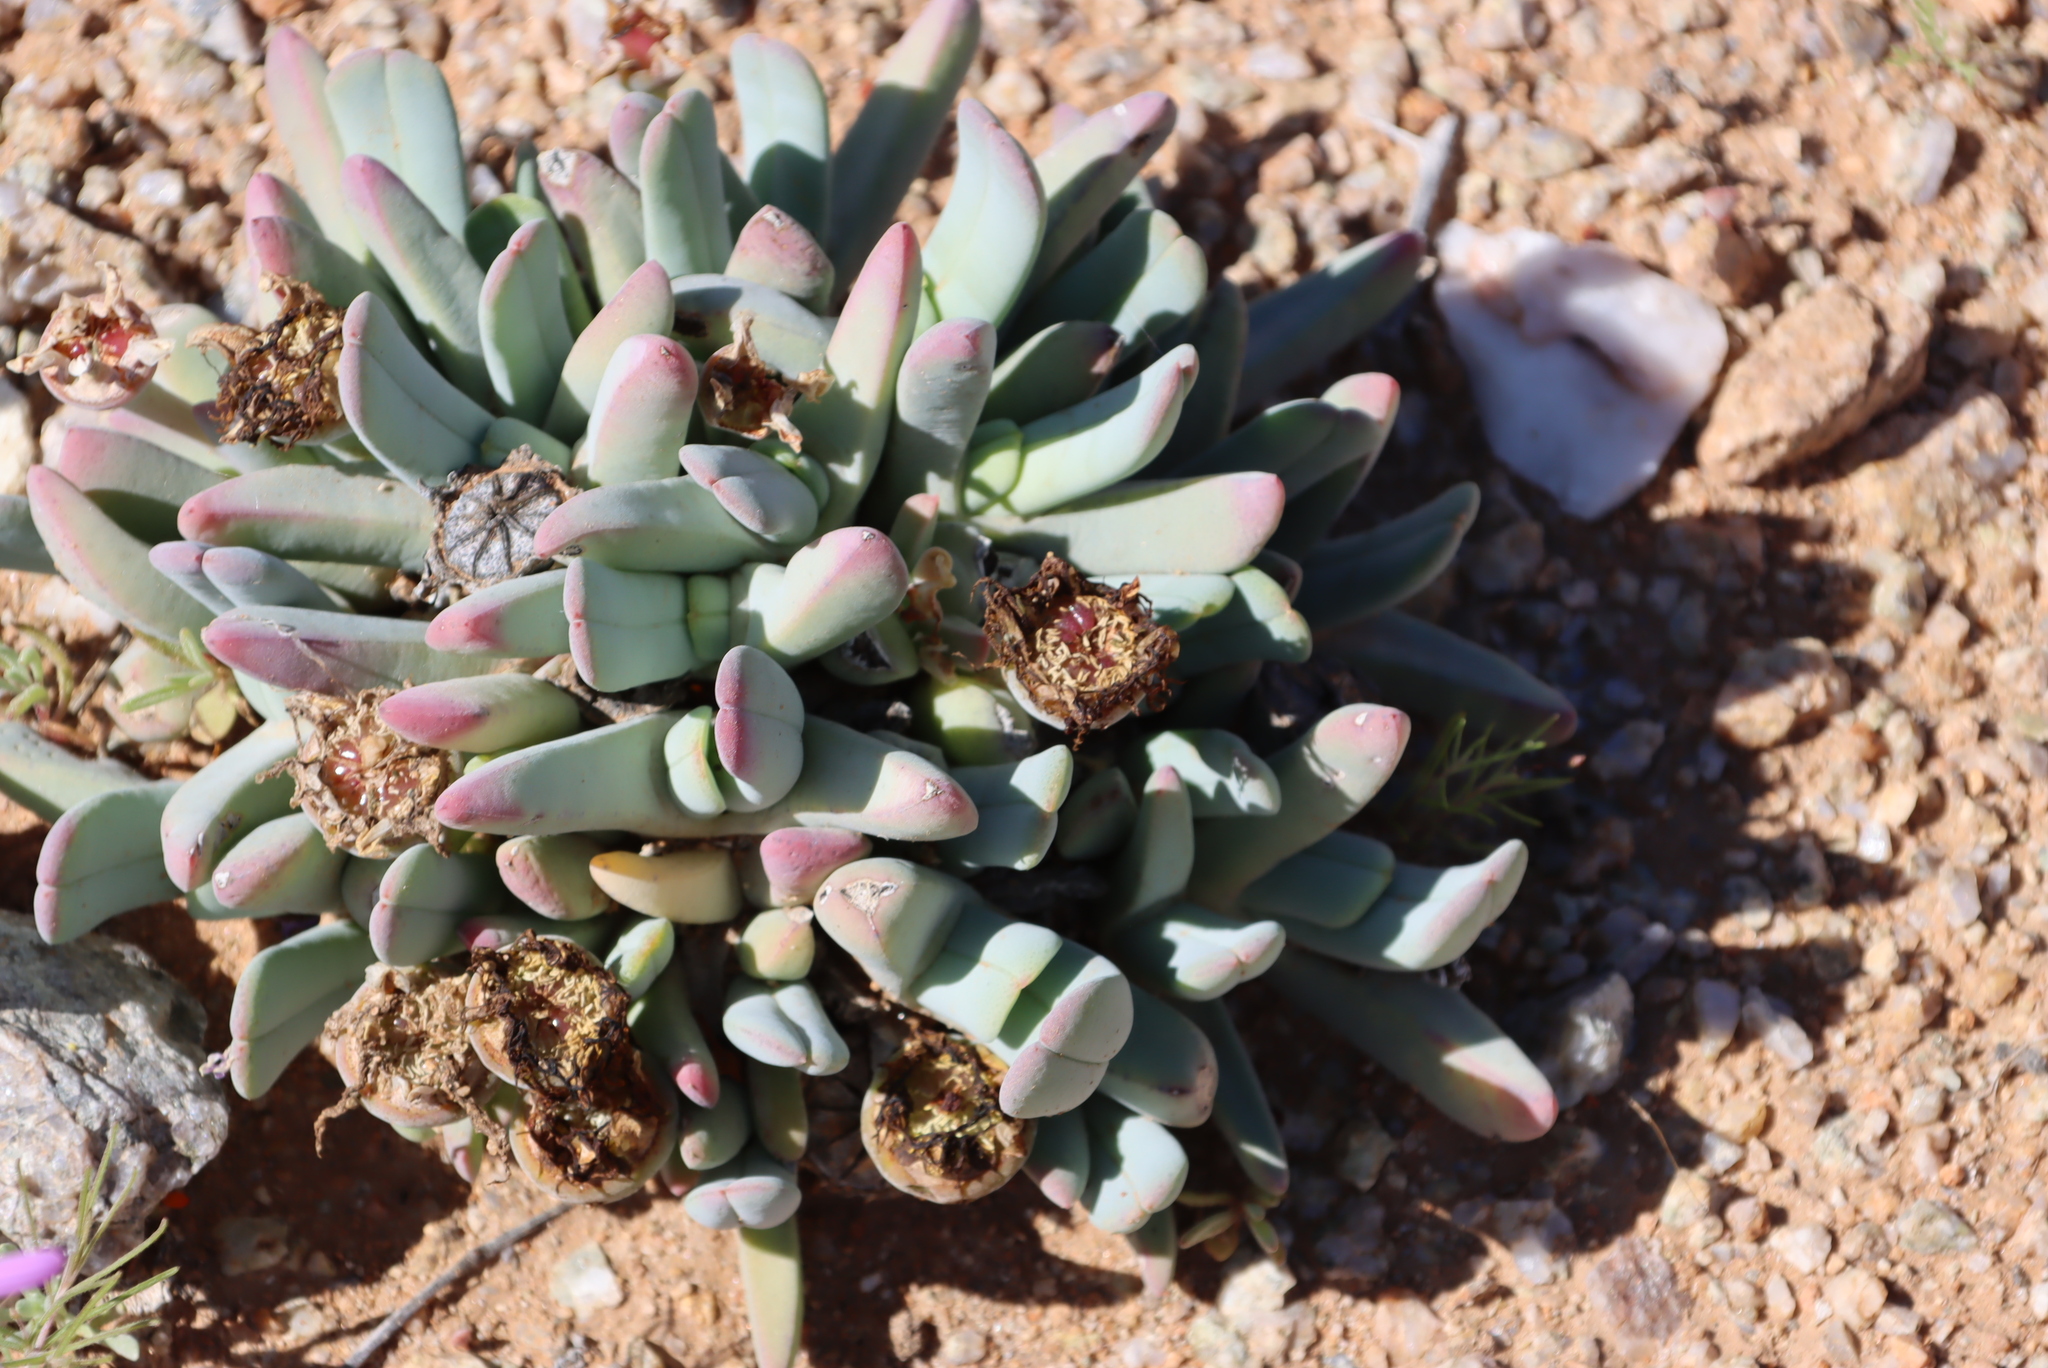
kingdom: Plantae
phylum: Tracheophyta
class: Magnoliopsida
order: Caryophyllales
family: Aizoaceae
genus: Cheiridopsis
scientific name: Cheiridopsis denticulata
